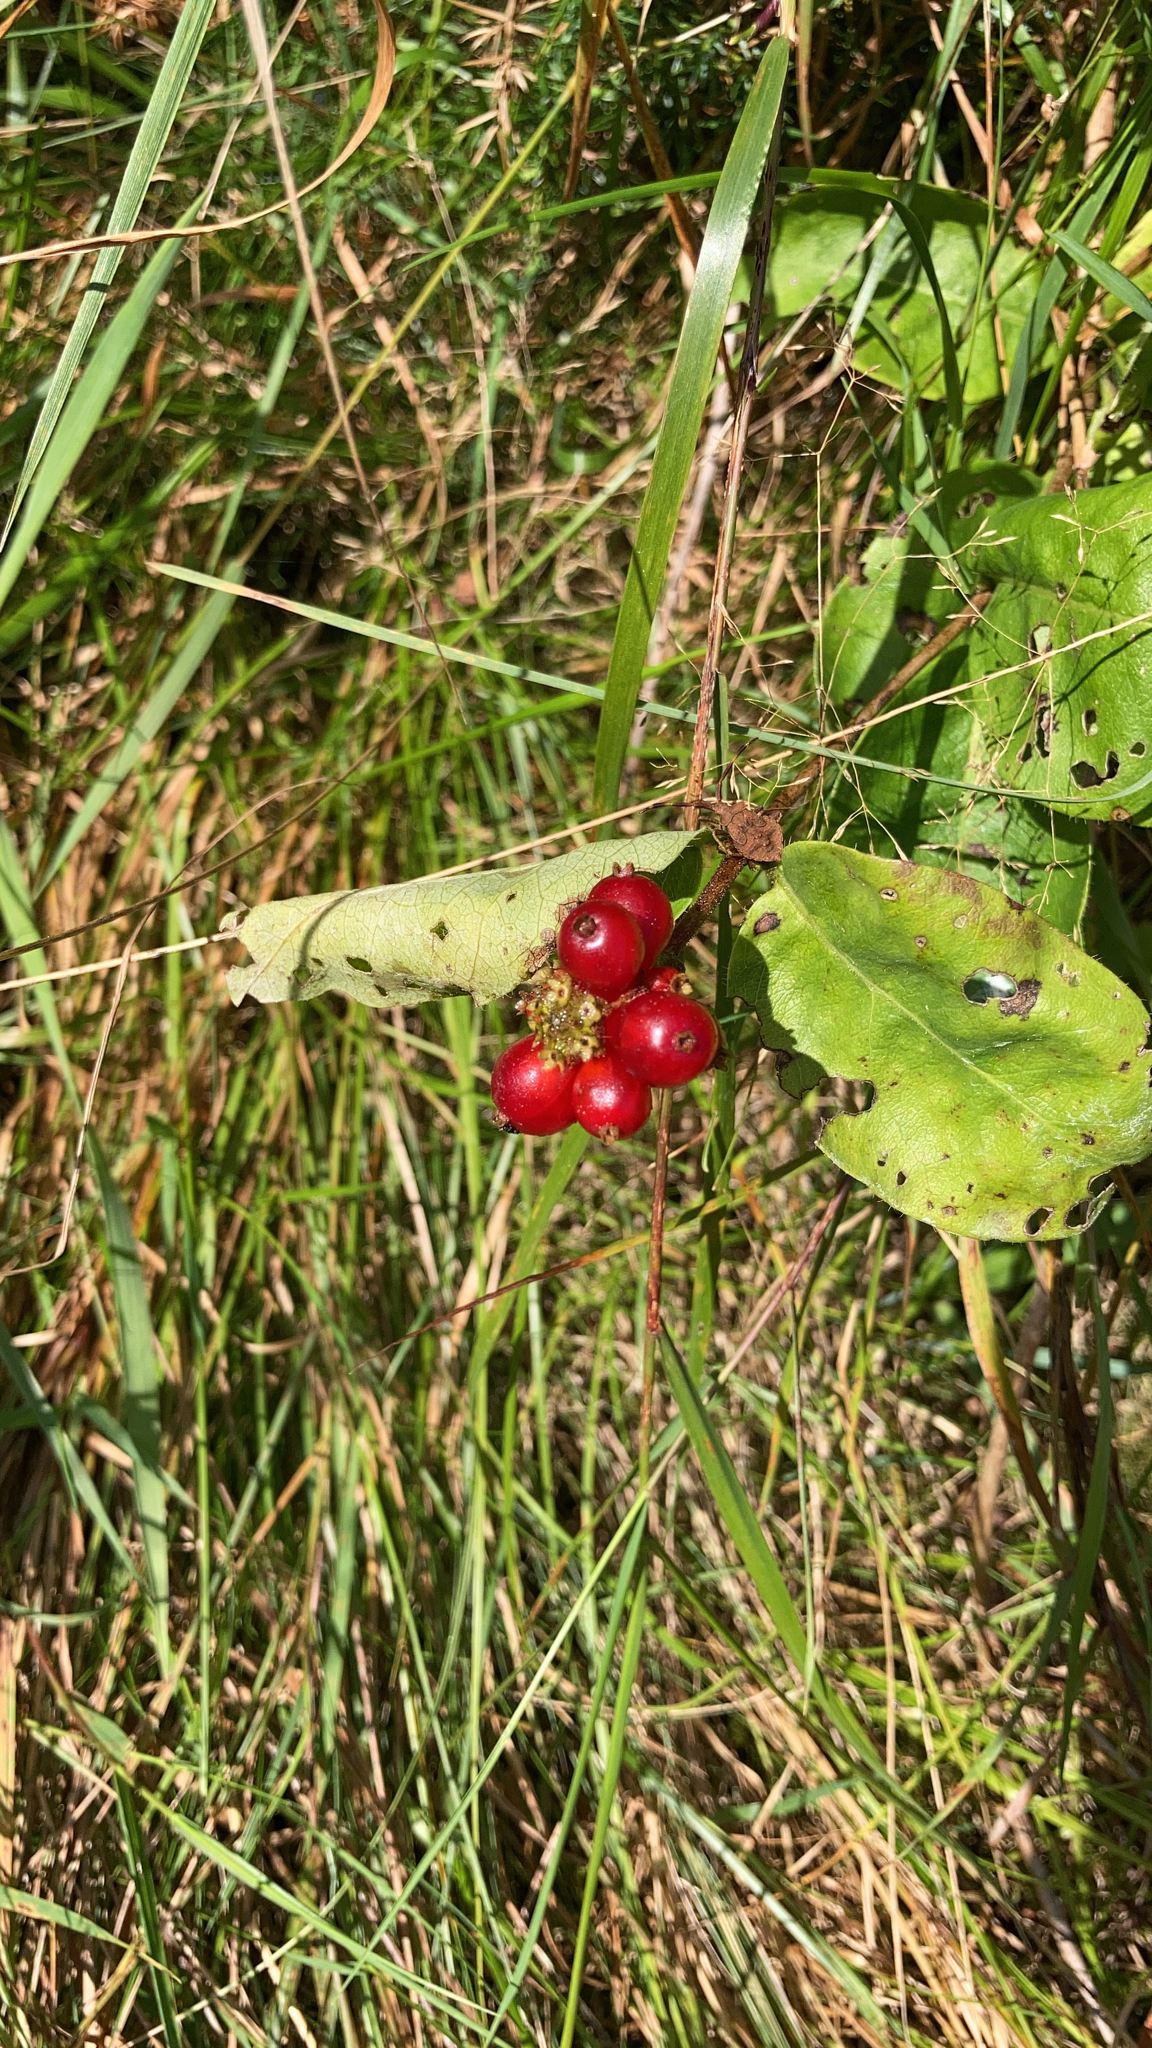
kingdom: Plantae
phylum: Tracheophyta
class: Magnoliopsida
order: Dipsacales
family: Caprifoliaceae
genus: Lonicera
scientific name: Lonicera periclymenum
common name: European honeysuckle
